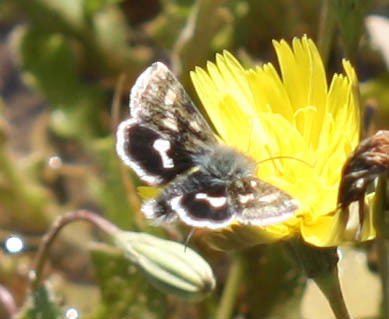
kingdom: Animalia
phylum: Arthropoda
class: Insecta
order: Lepidoptera
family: Noctuidae
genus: Heliothodes
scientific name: Heliothodes diminutiva
